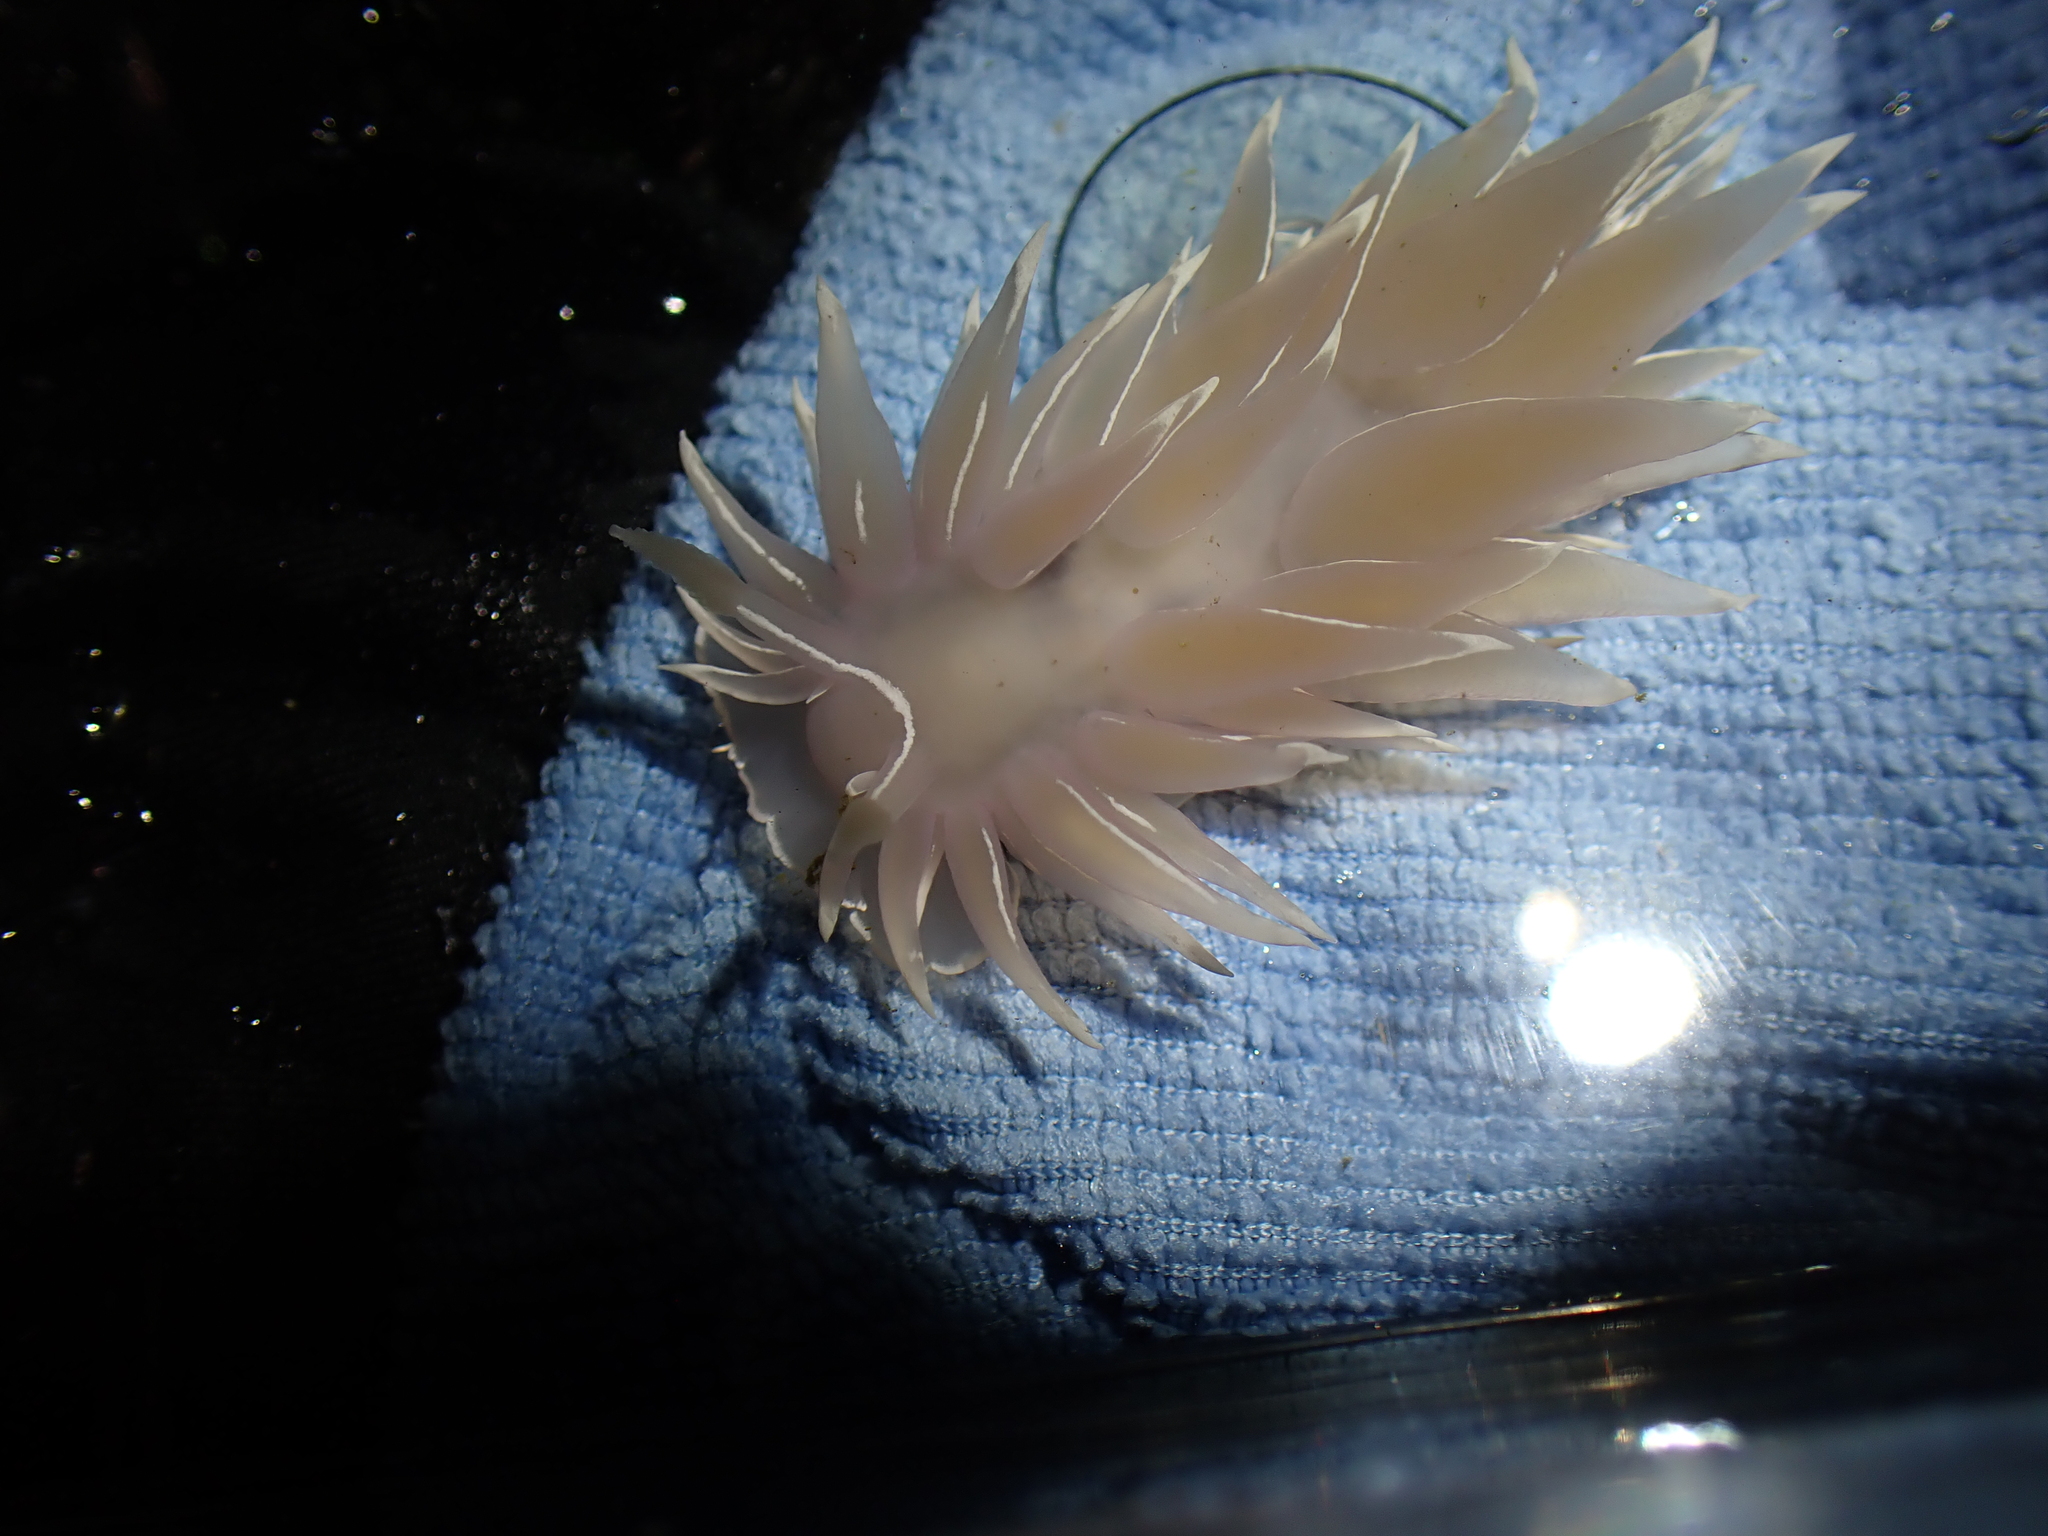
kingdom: Animalia
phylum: Mollusca
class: Gastropoda
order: Nudibranchia
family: Dironidae
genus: Dirona
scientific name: Dirona albolineata
